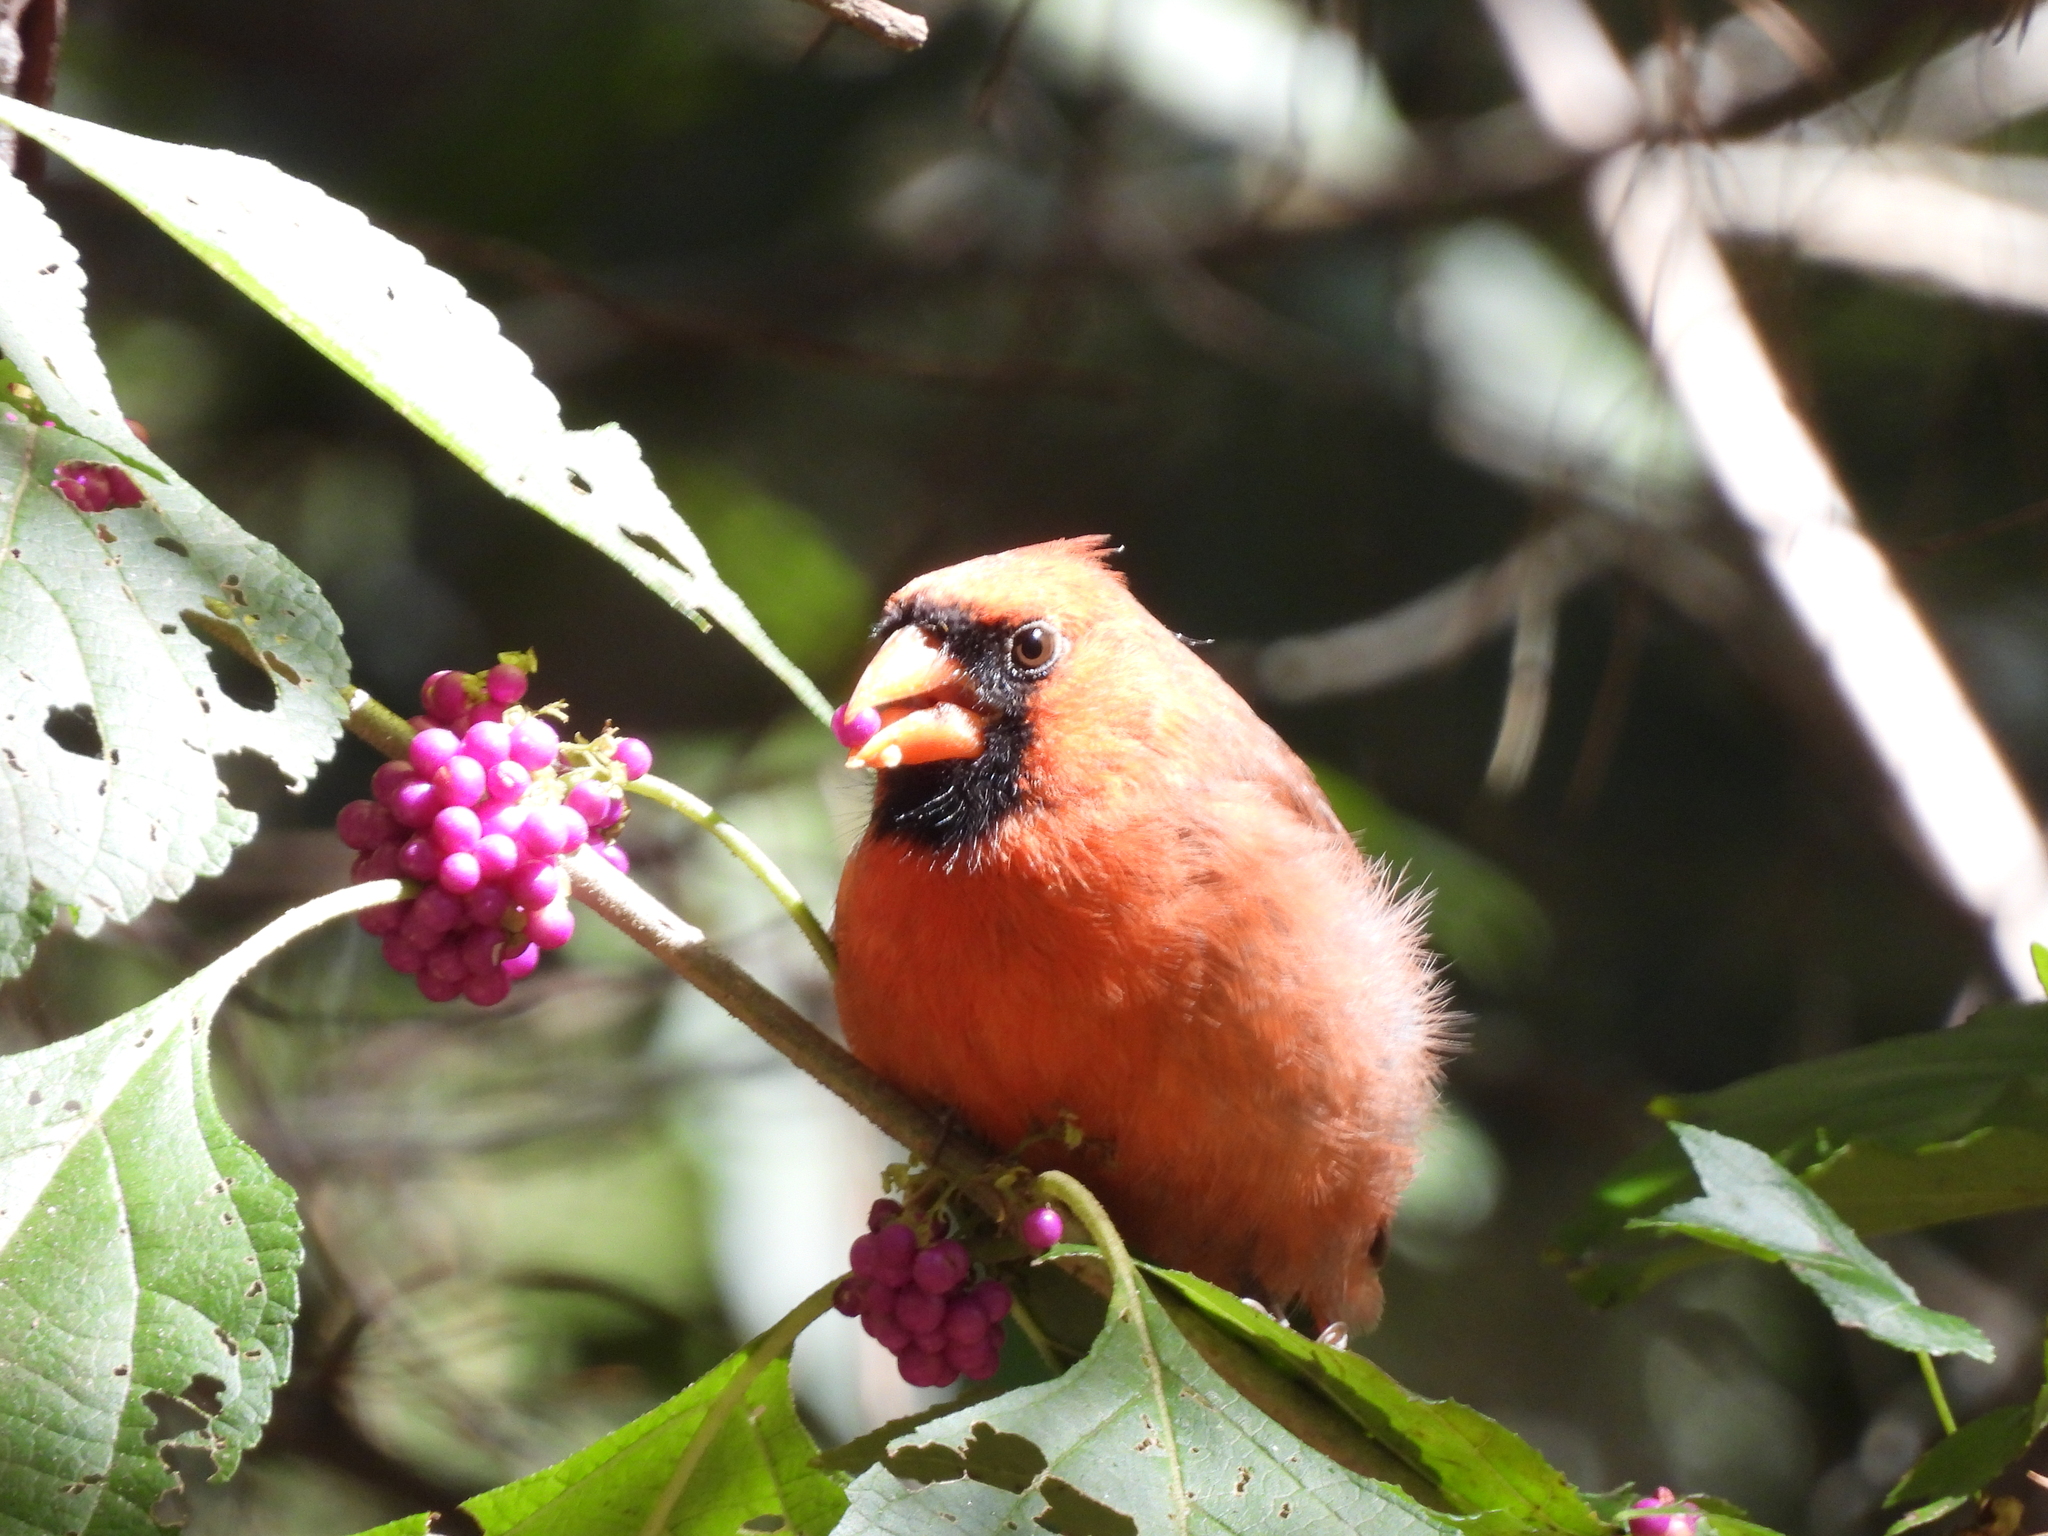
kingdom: Animalia
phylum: Chordata
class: Aves
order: Passeriformes
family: Cardinalidae
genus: Cardinalis
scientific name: Cardinalis cardinalis
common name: Northern cardinal
